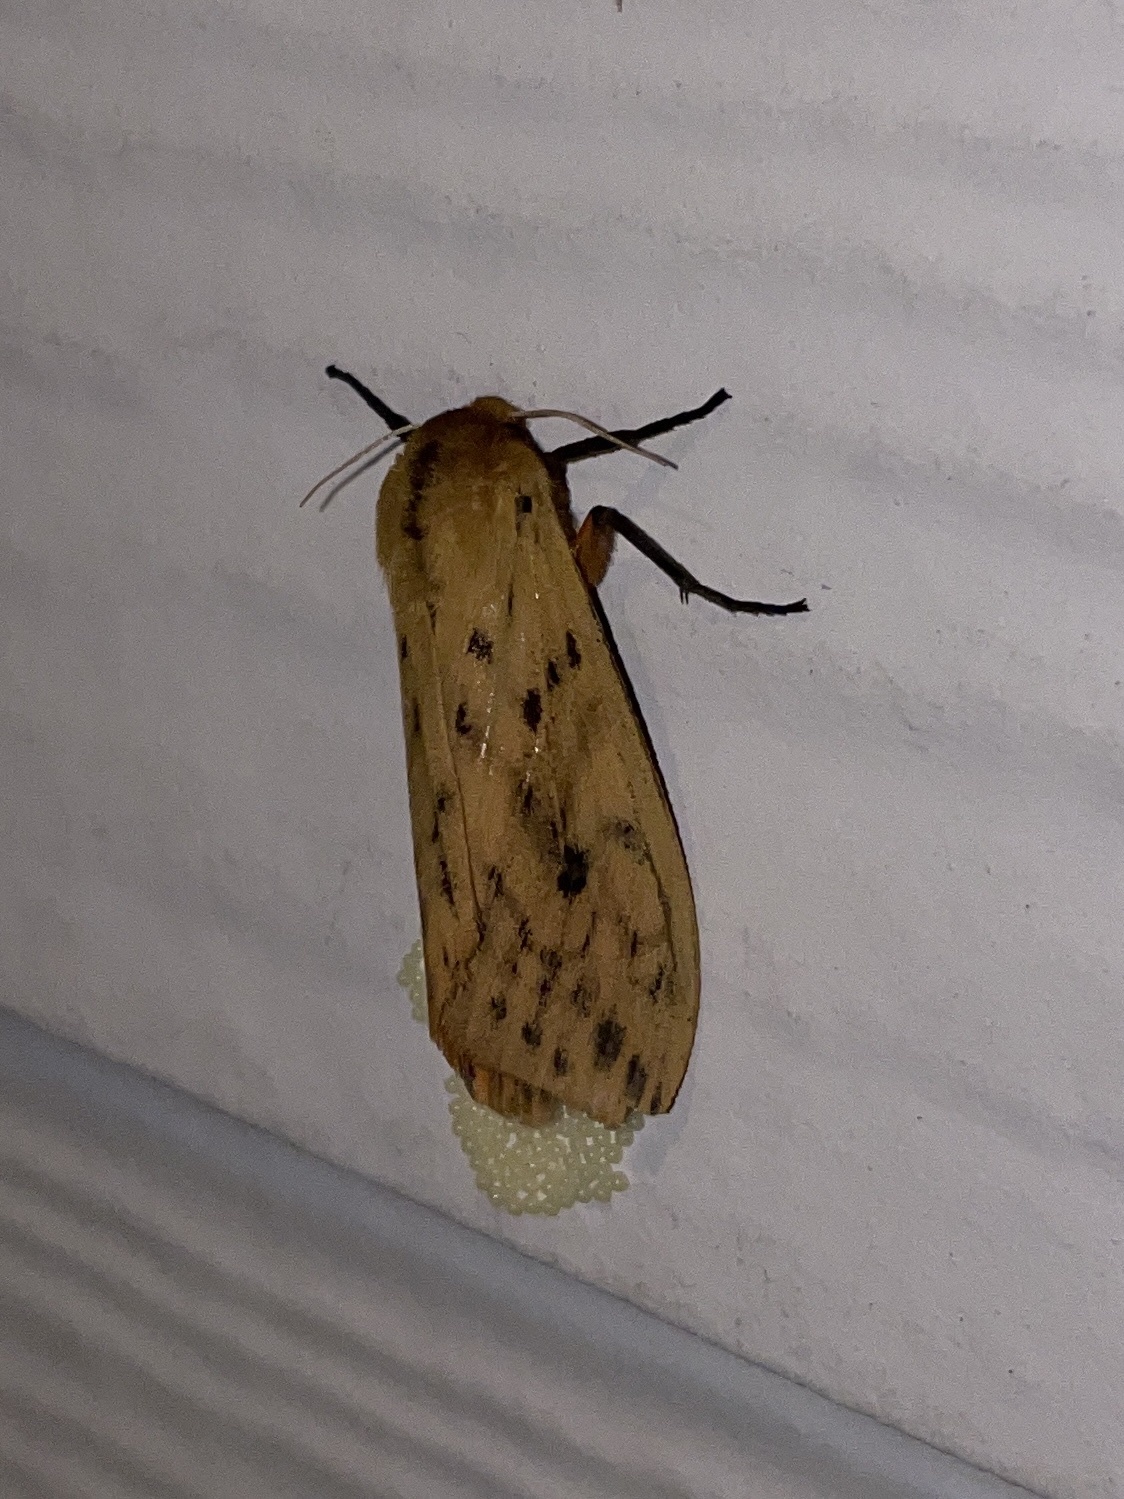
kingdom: Animalia
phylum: Arthropoda
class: Insecta
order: Lepidoptera
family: Erebidae
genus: Pyrrharctia
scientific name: Pyrrharctia isabella
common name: Isabella tiger moth
